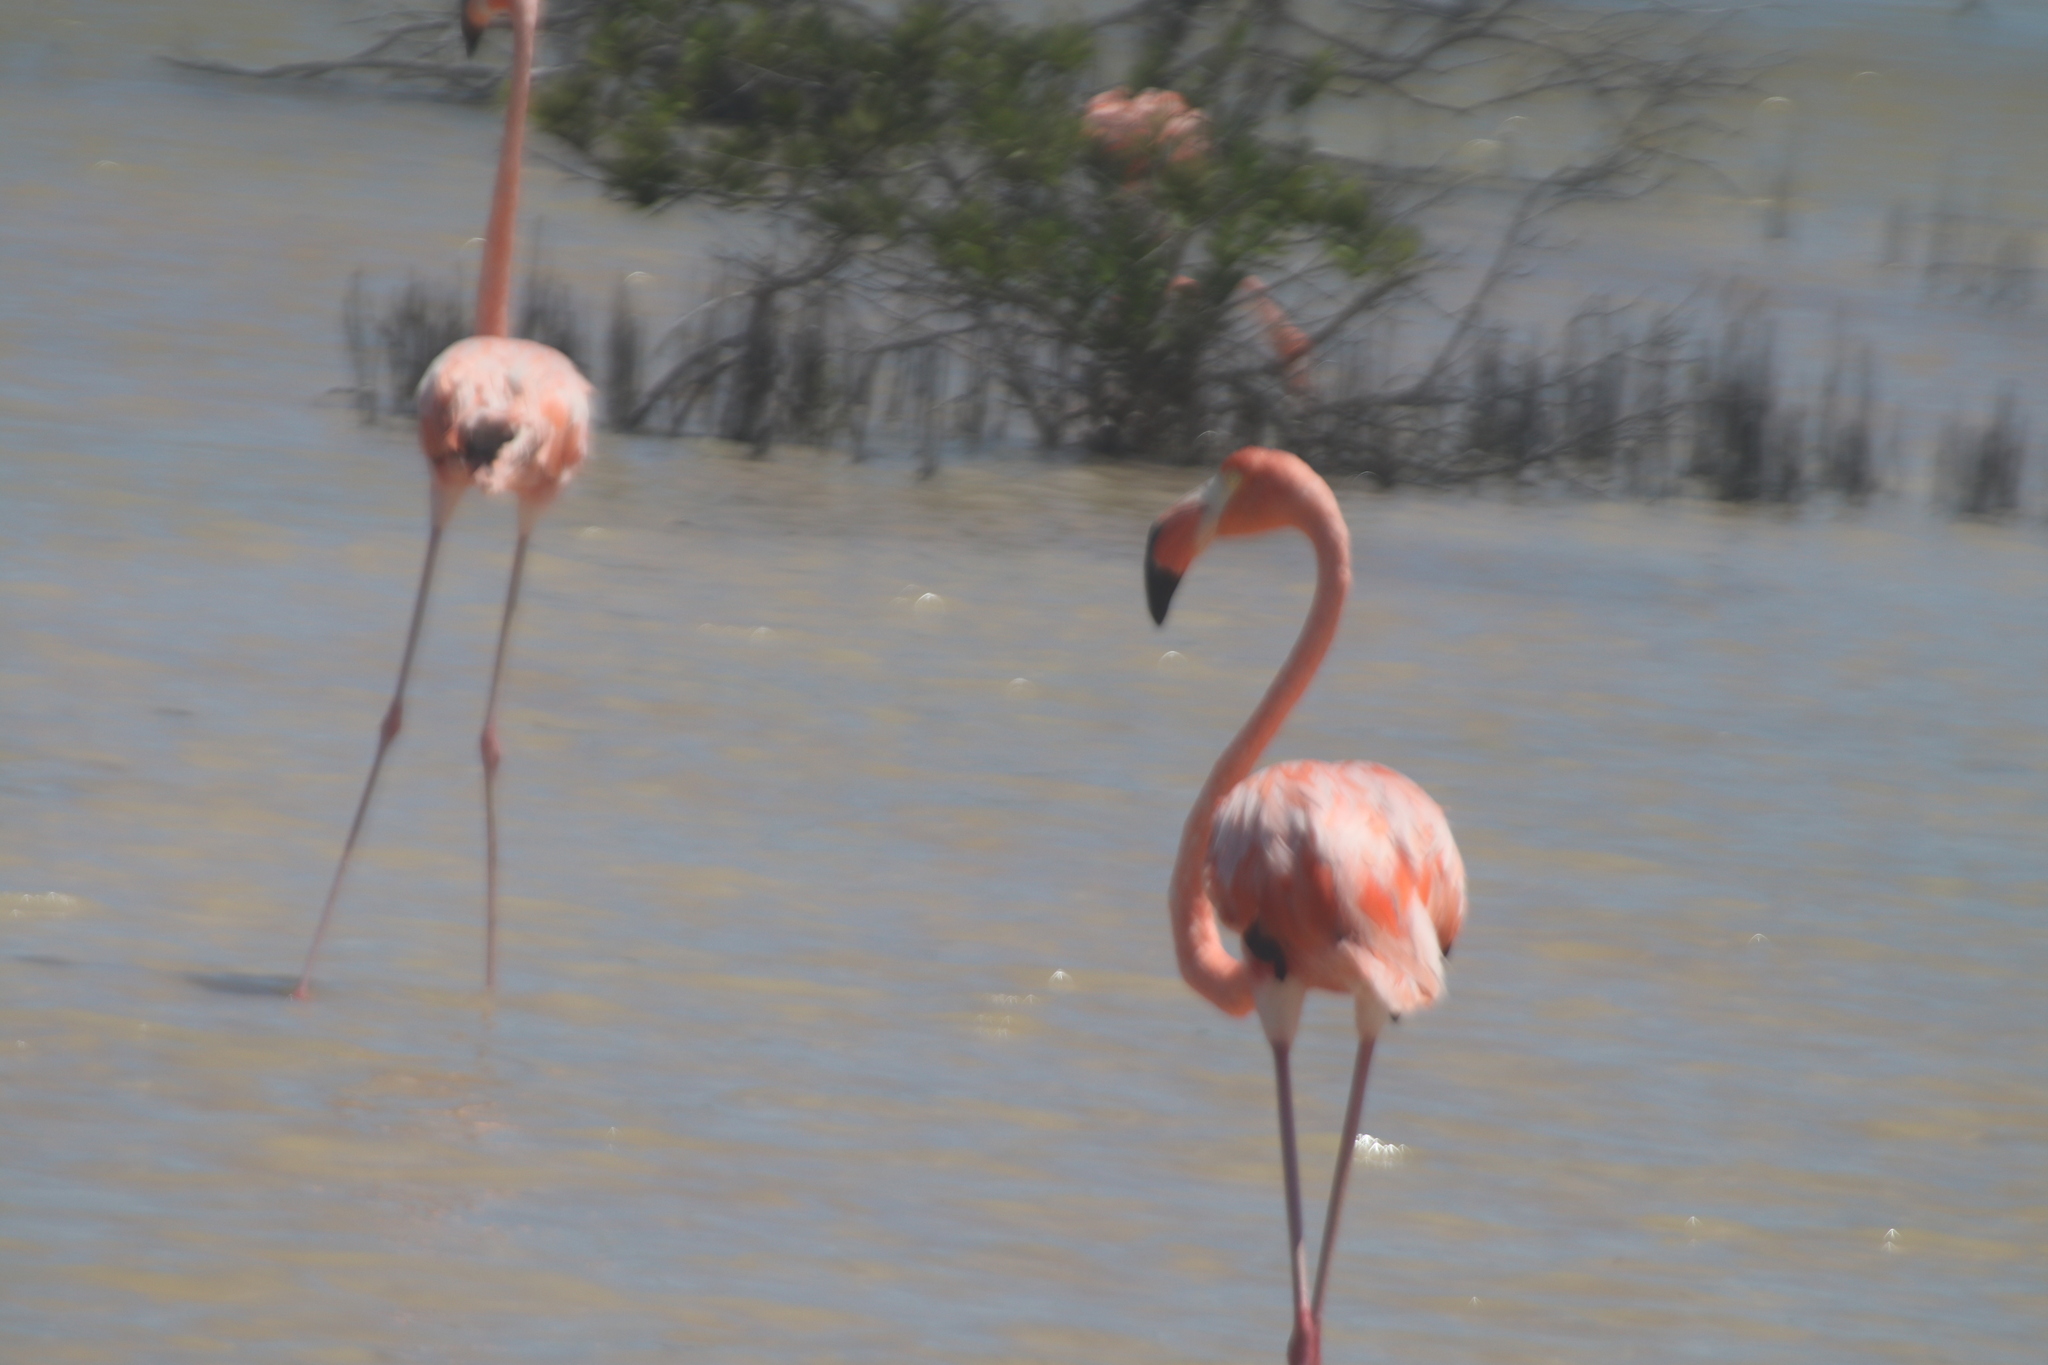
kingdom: Animalia
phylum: Chordata
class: Aves
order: Phoenicopteriformes
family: Phoenicopteridae
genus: Phoenicopterus
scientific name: Phoenicopterus ruber
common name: American flamingo
